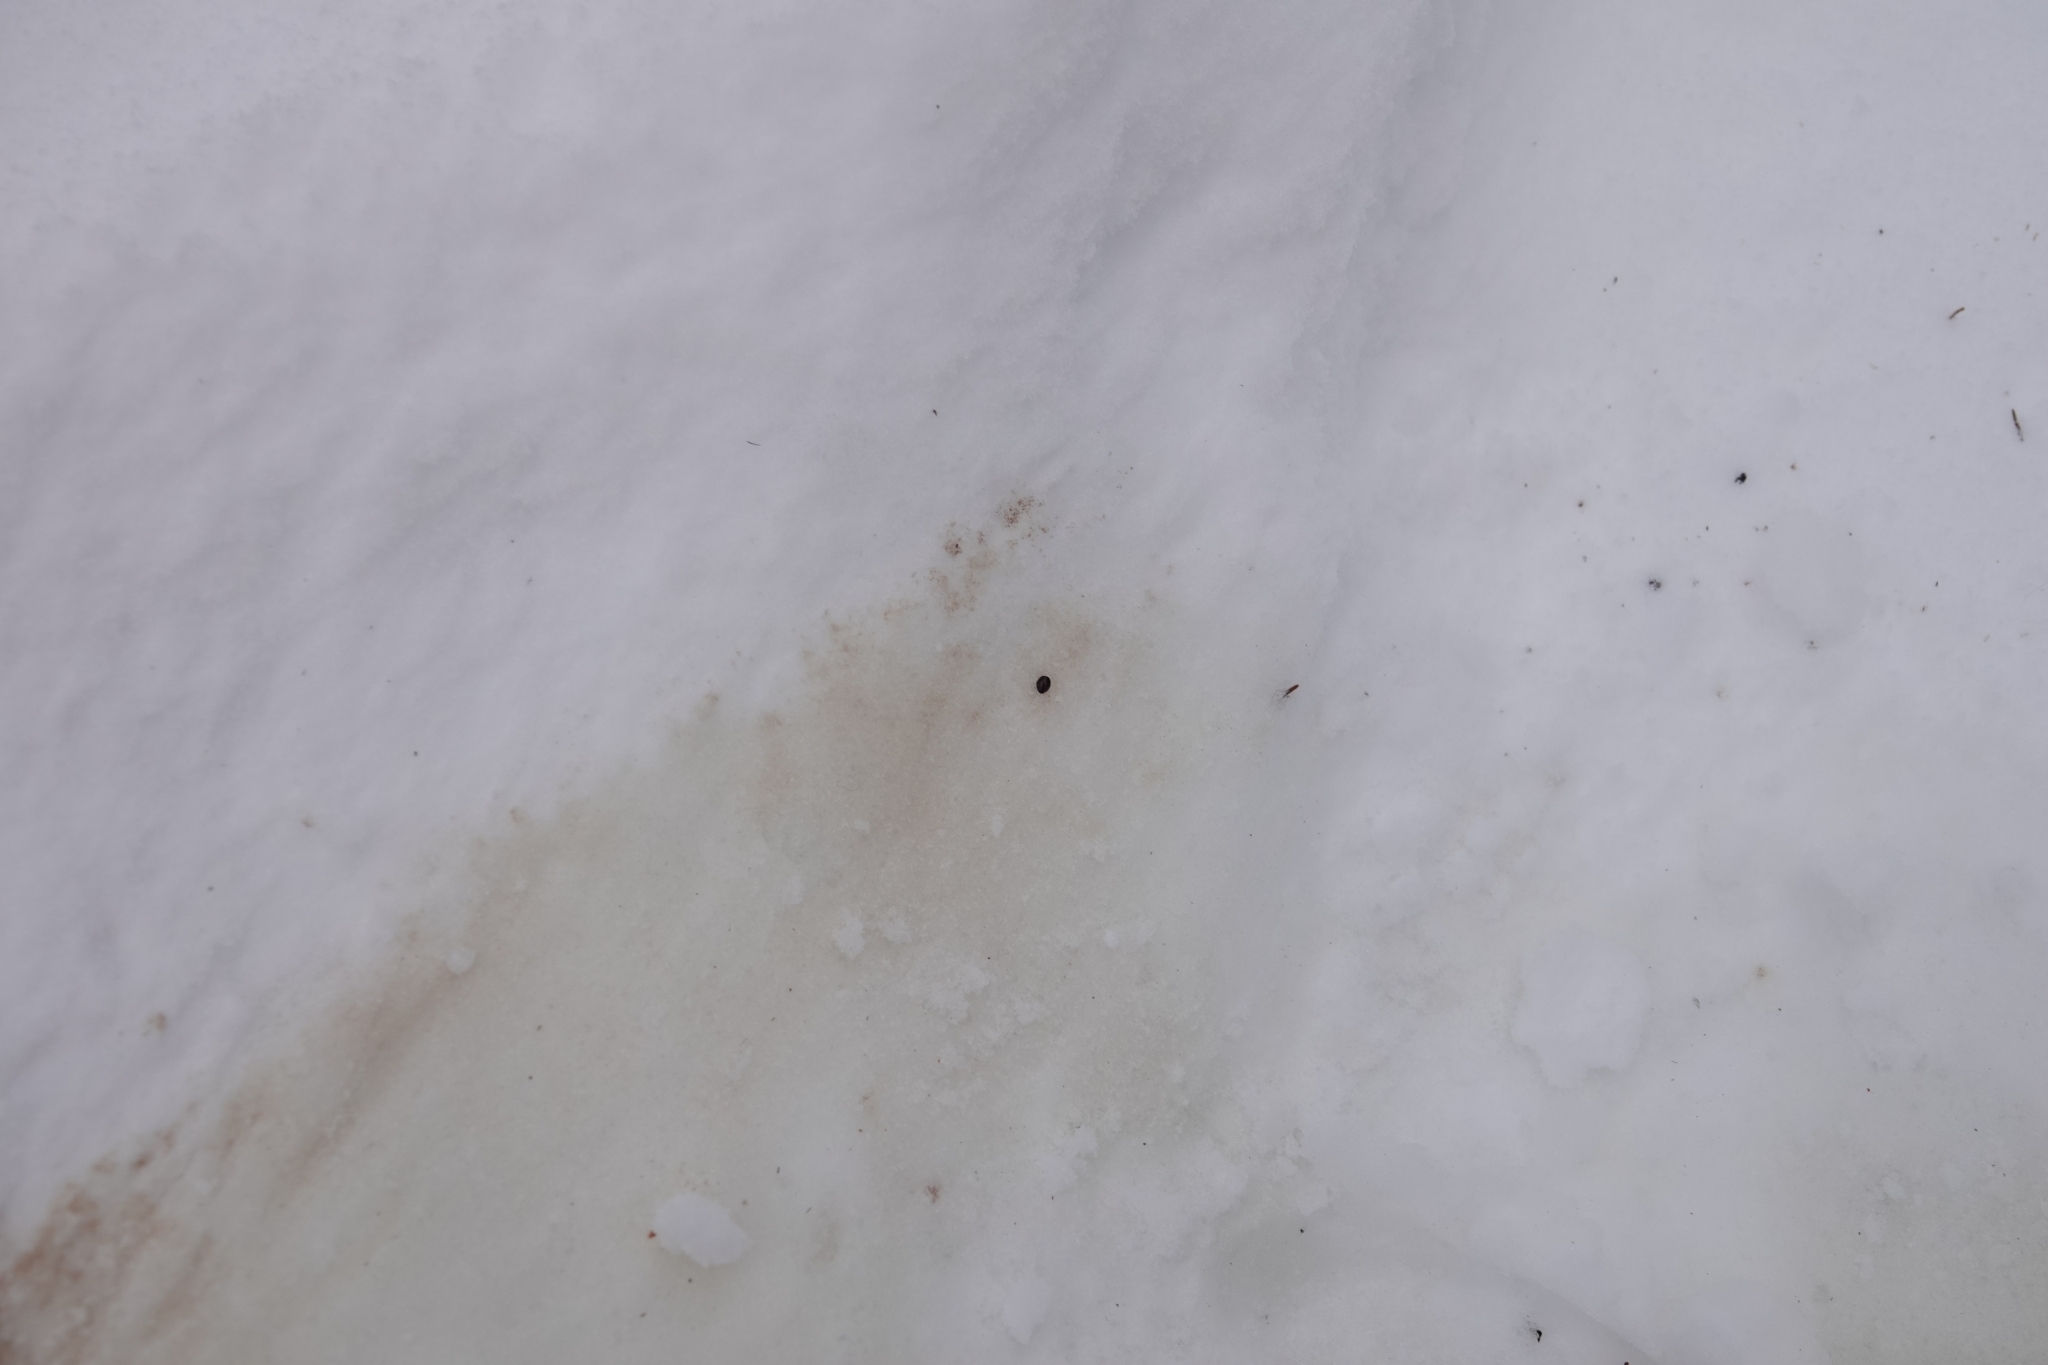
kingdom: Animalia
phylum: Arthropoda
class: Insecta
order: Diptera
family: Hippoboscidae
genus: Lipoptena
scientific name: Lipoptena cervi
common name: Deer ked
